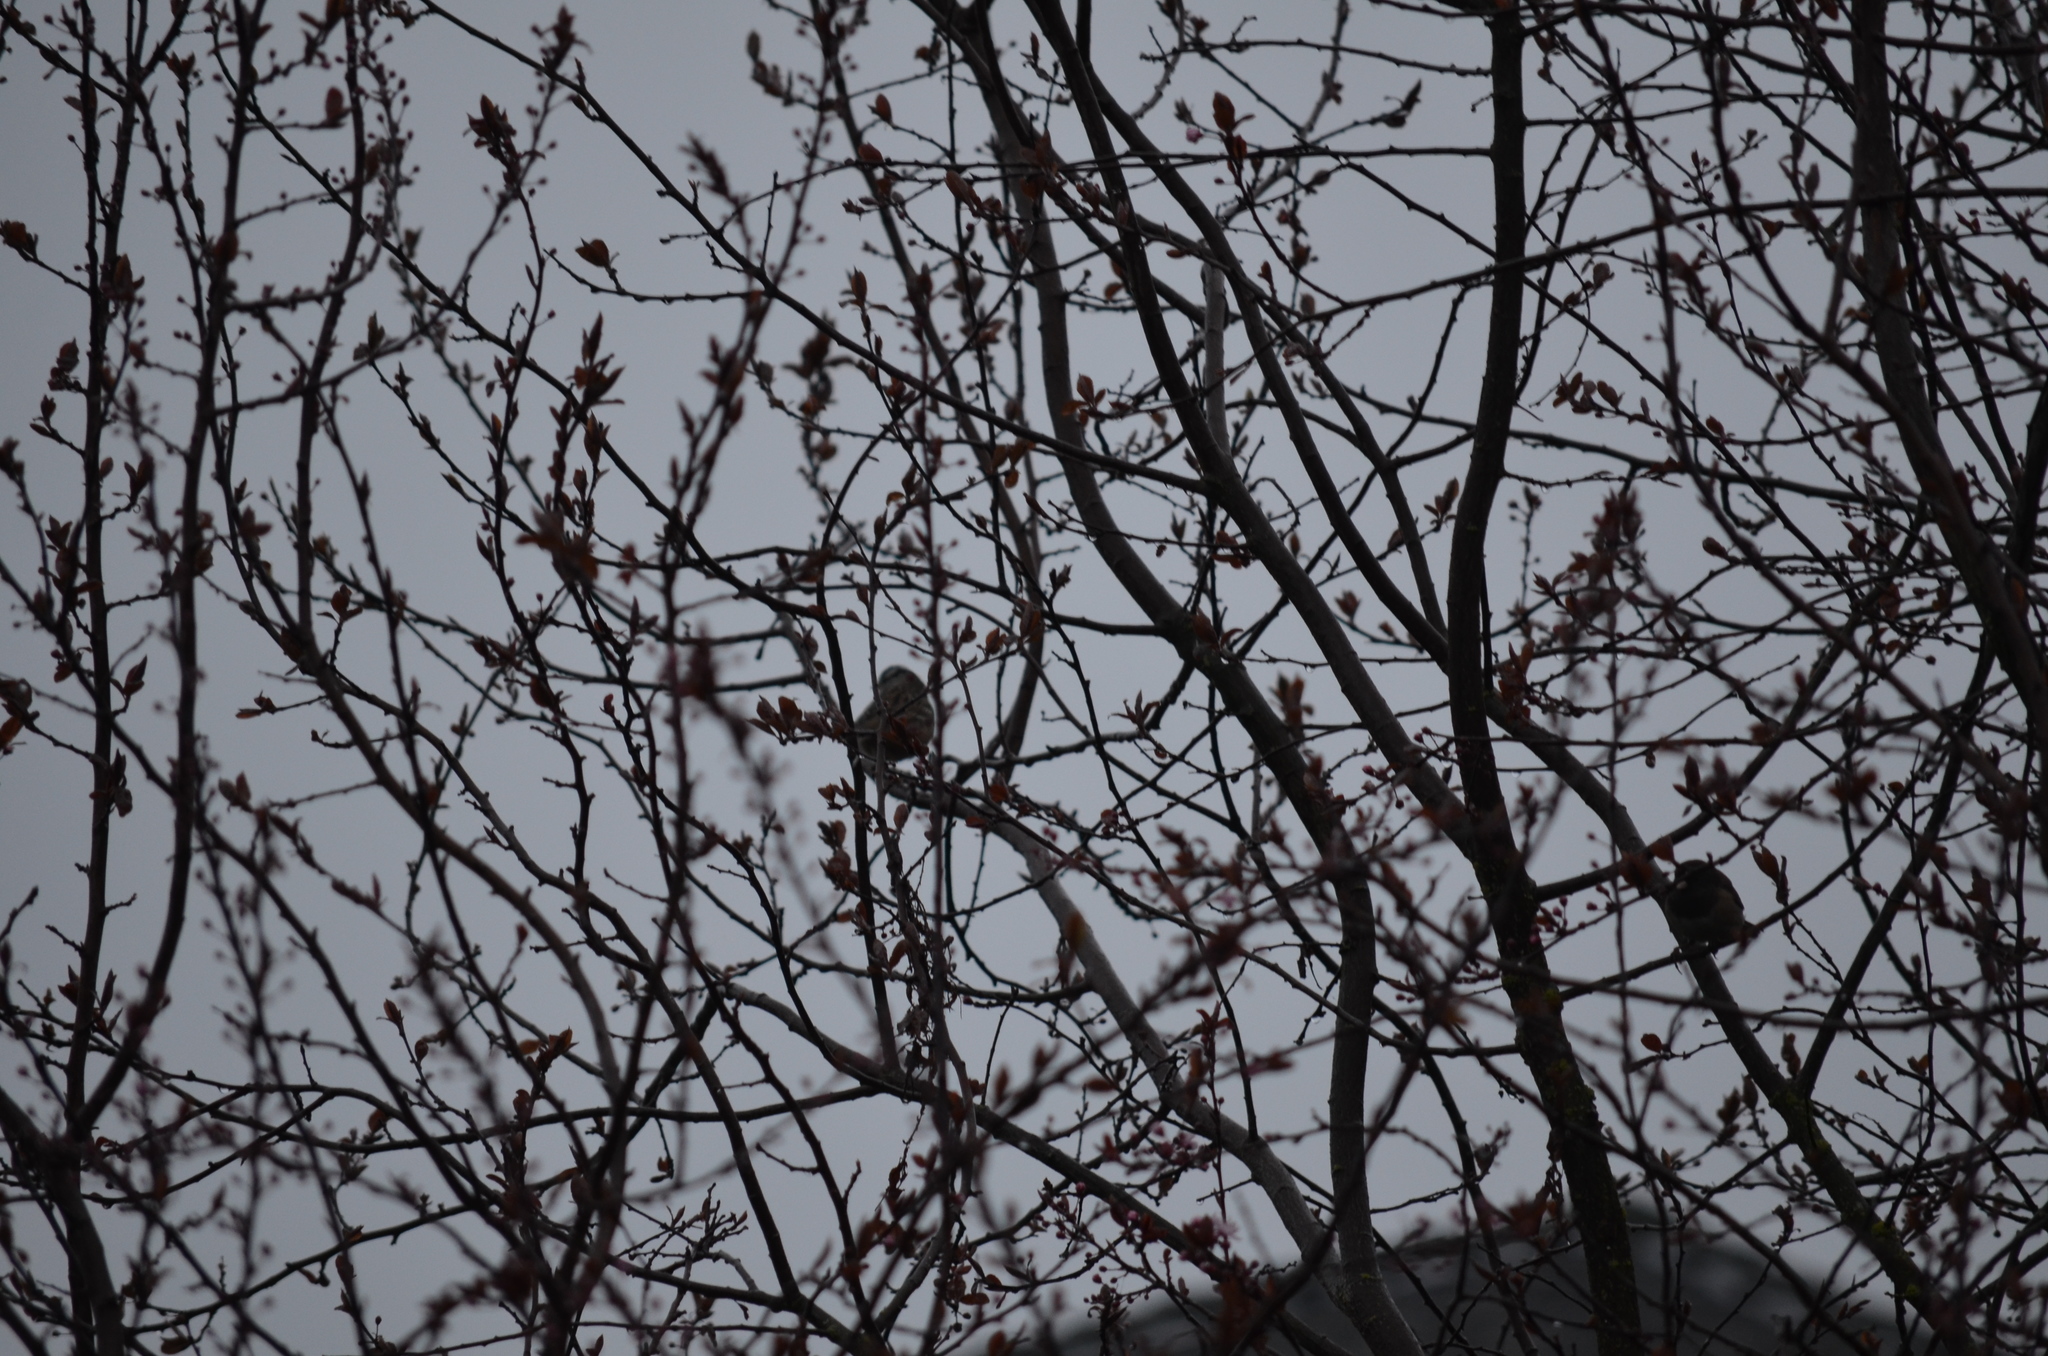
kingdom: Animalia
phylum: Chordata
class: Aves
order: Passeriformes
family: Passerellidae
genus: Zonotrichia
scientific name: Zonotrichia leucophrys
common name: White-crowned sparrow
